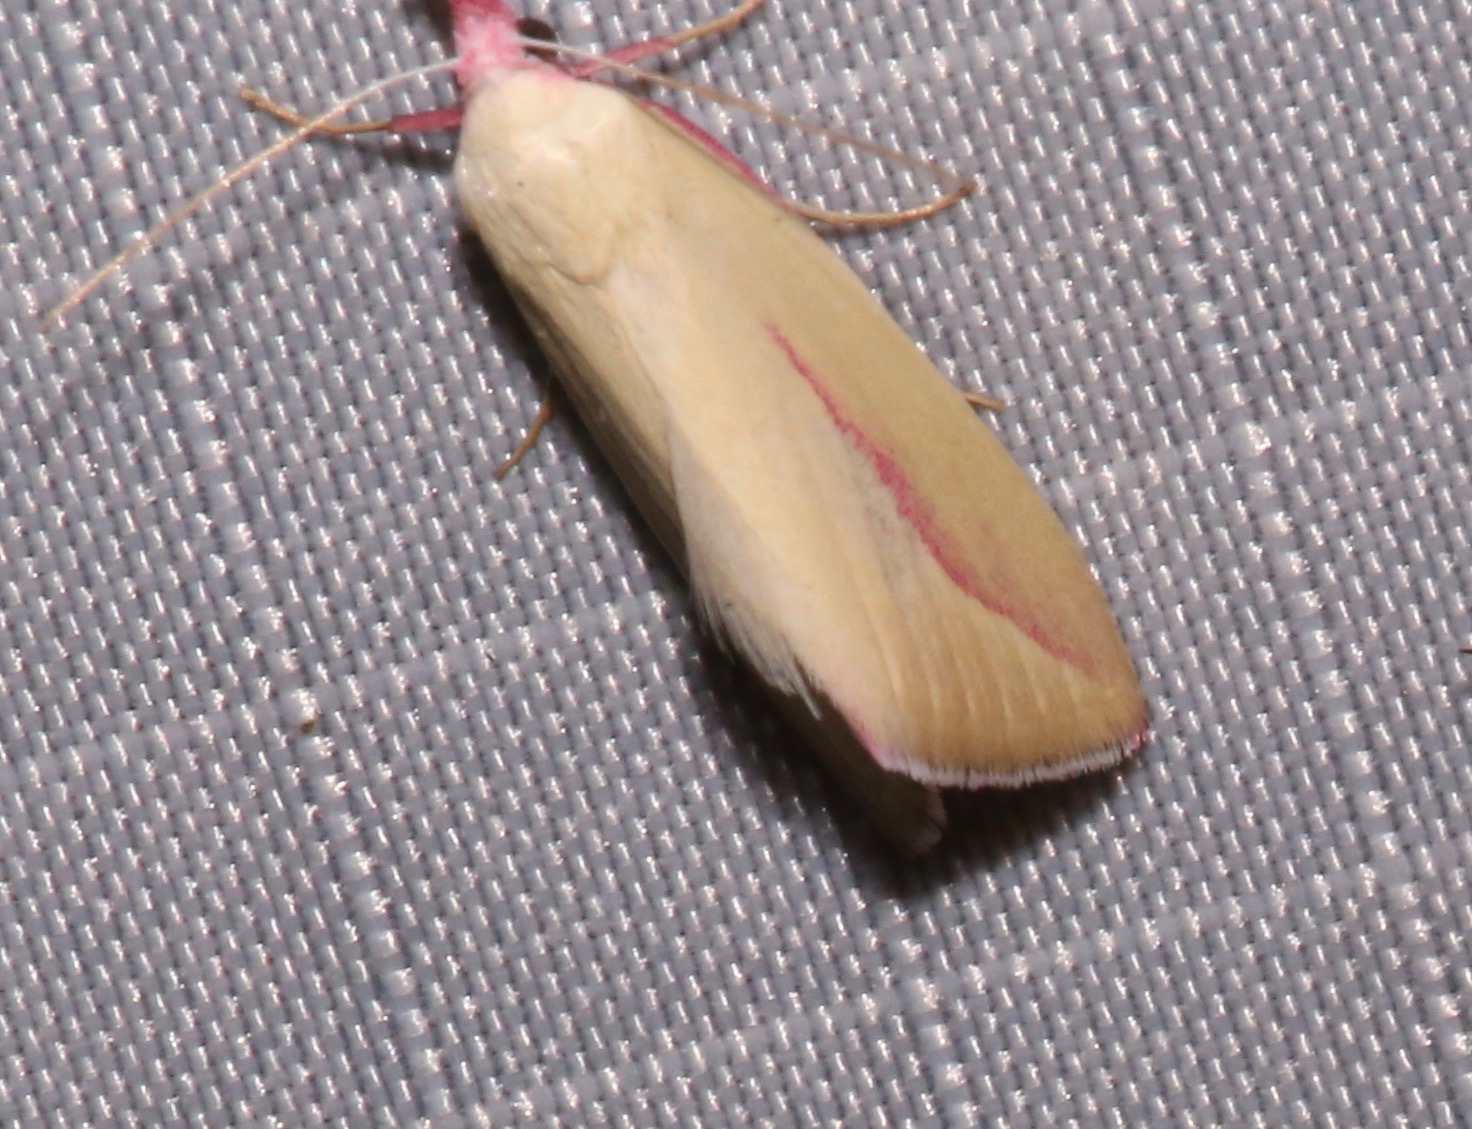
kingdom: Animalia
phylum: Arthropoda
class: Insecta
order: Lepidoptera
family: Erebidae
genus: Phytometra
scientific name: Phytometra obliqualis
